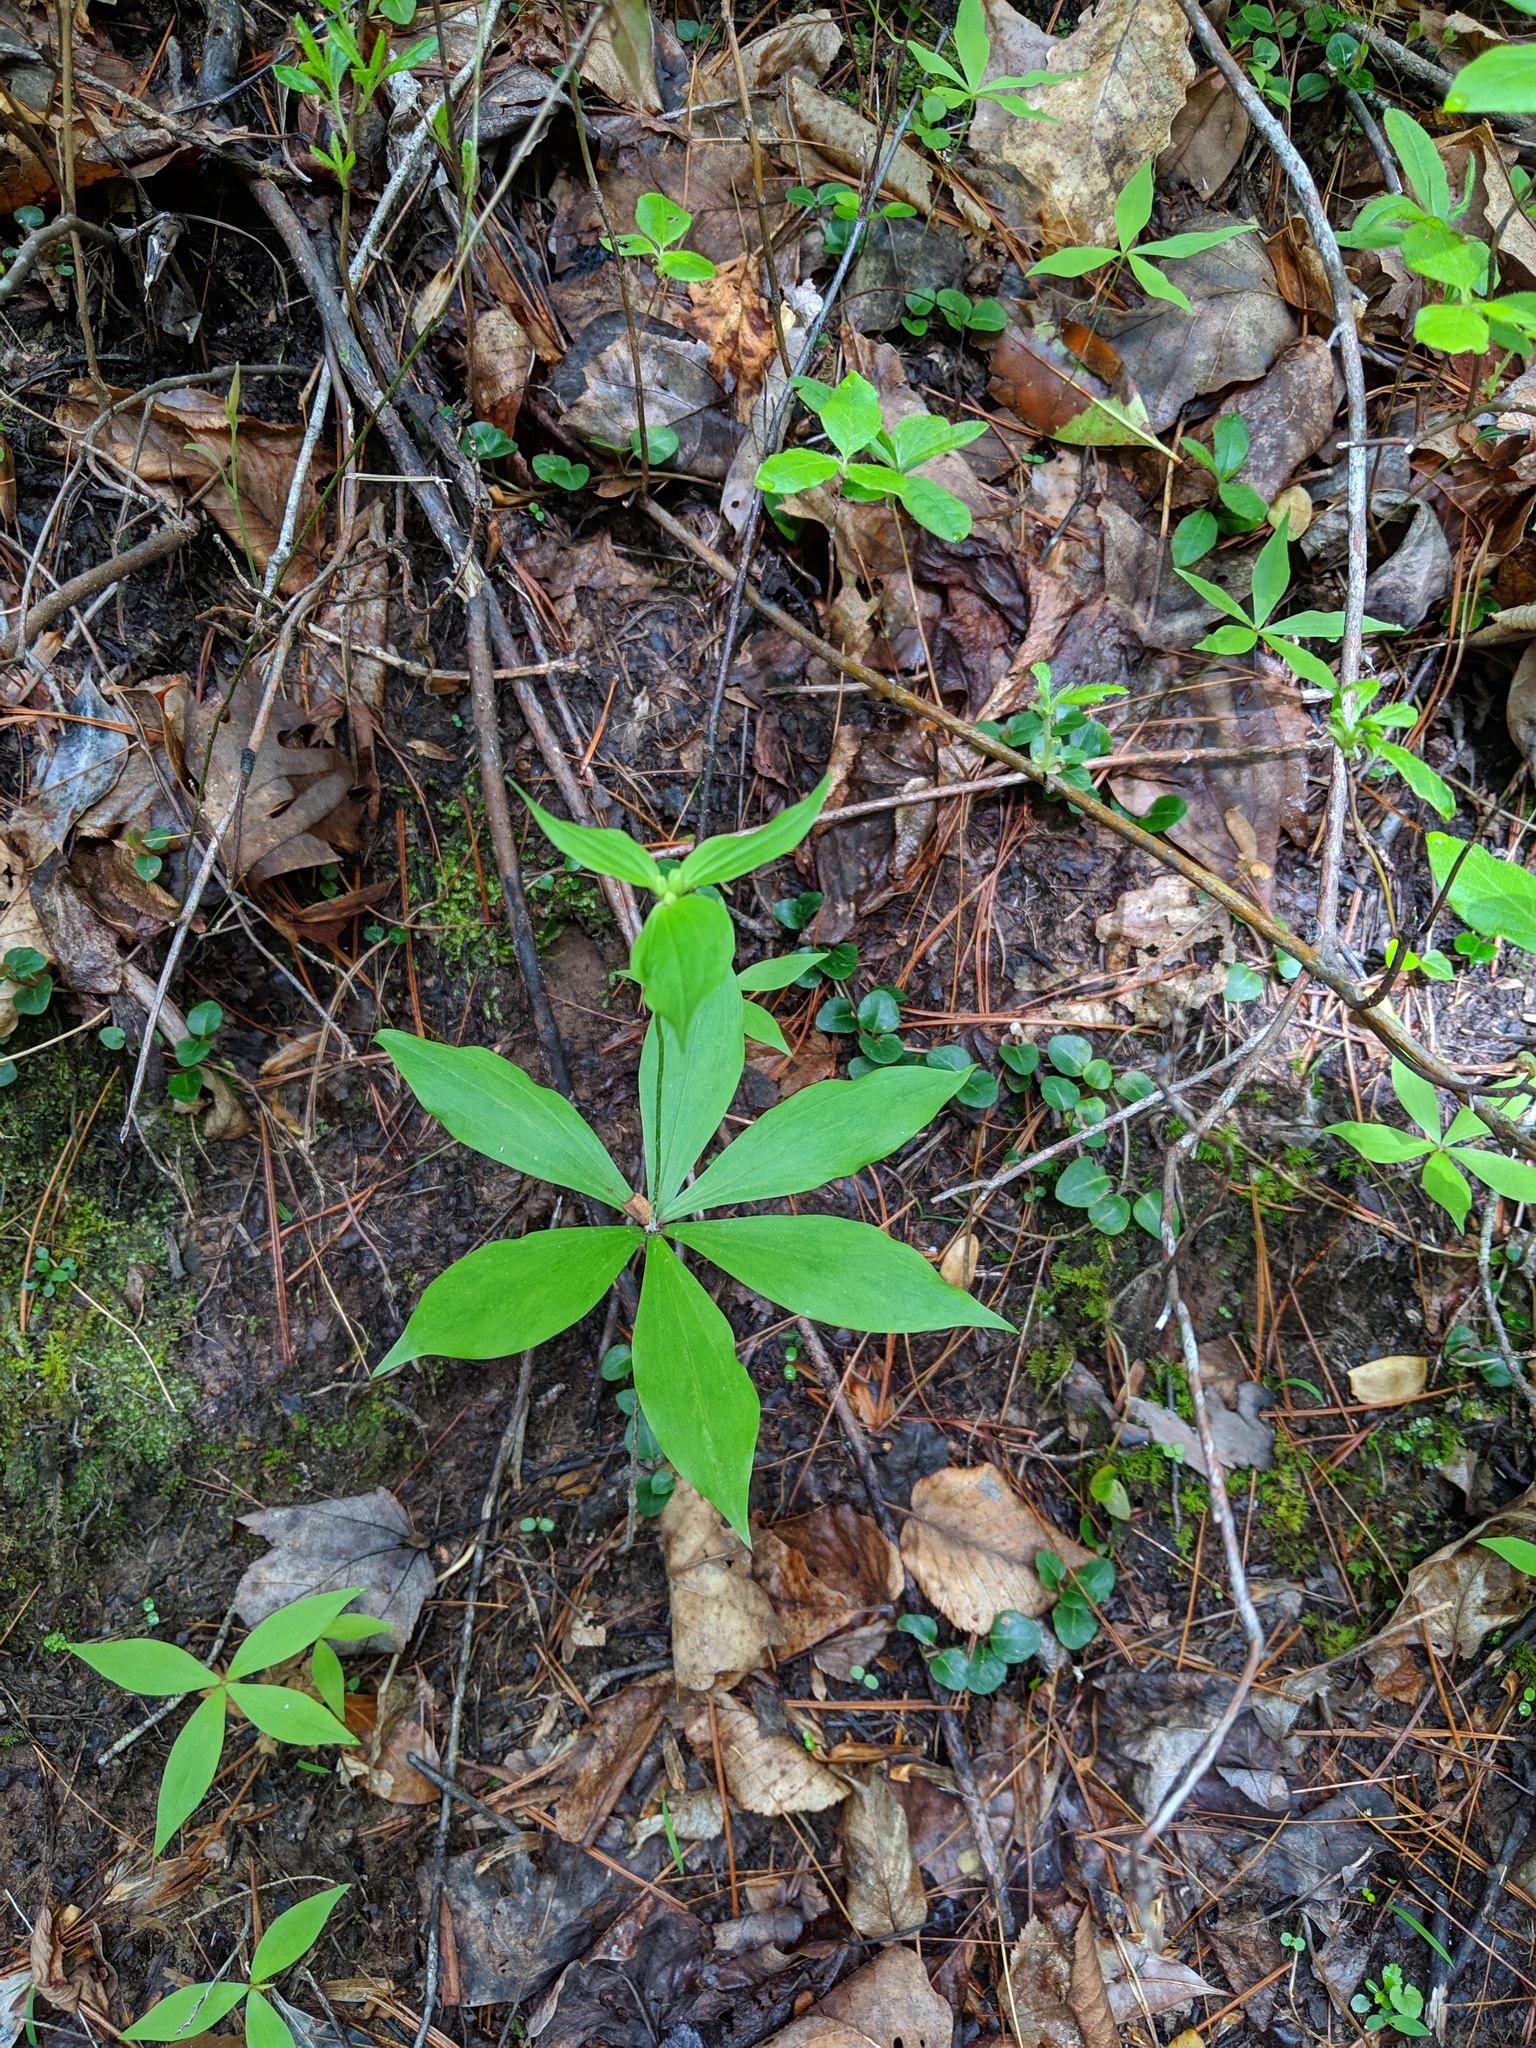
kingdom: Plantae
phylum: Tracheophyta
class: Liliopsida
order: Liliales
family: Liliaceae
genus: Medeola
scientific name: Medeola virginiana
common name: Indian cucumber-root
